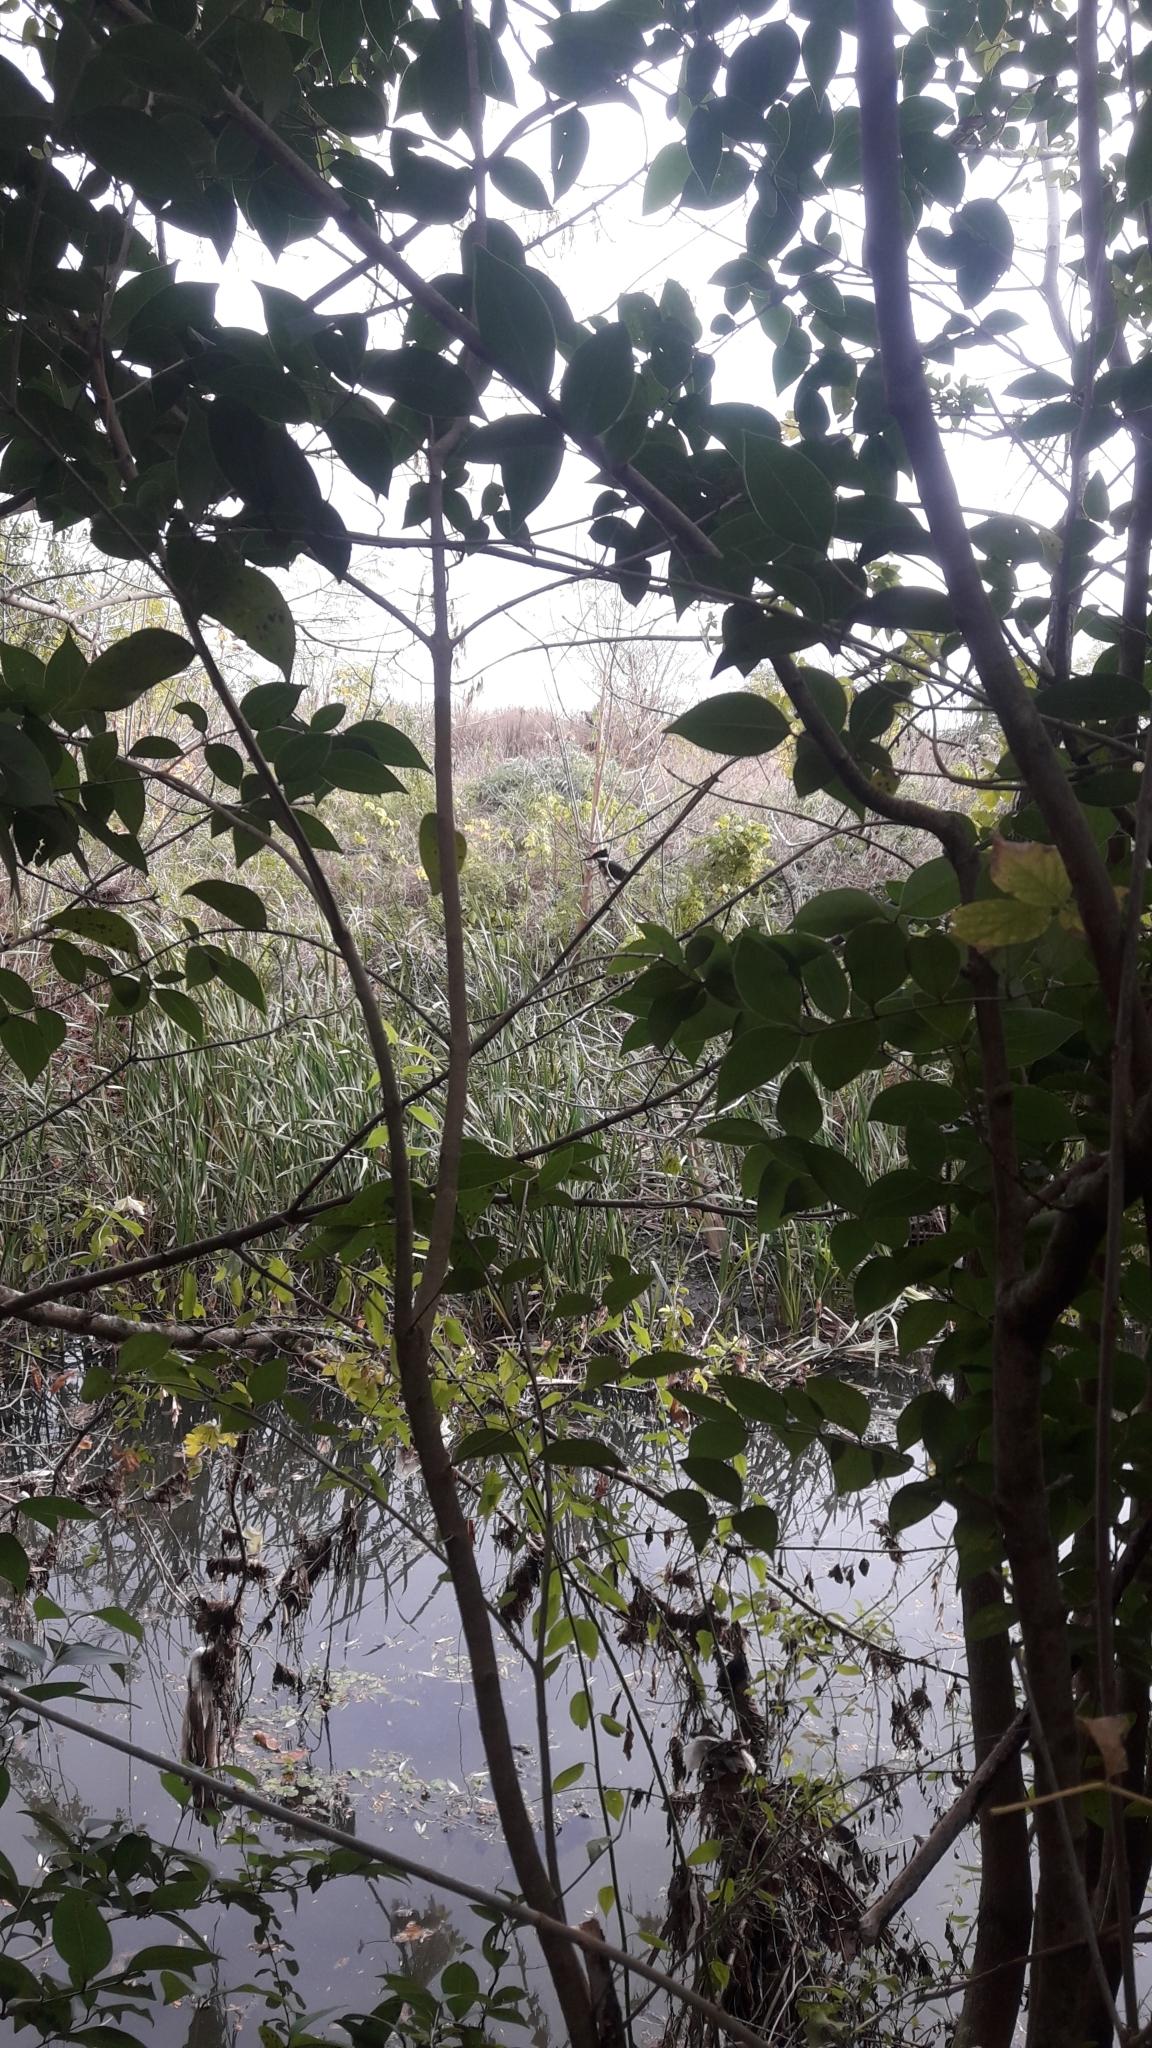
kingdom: Animalia
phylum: Chordata
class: Aves
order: Coraciiformes
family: Alcedinidae
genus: Chloroceryle
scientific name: Chloroceryle americana
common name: Green kingfisher
